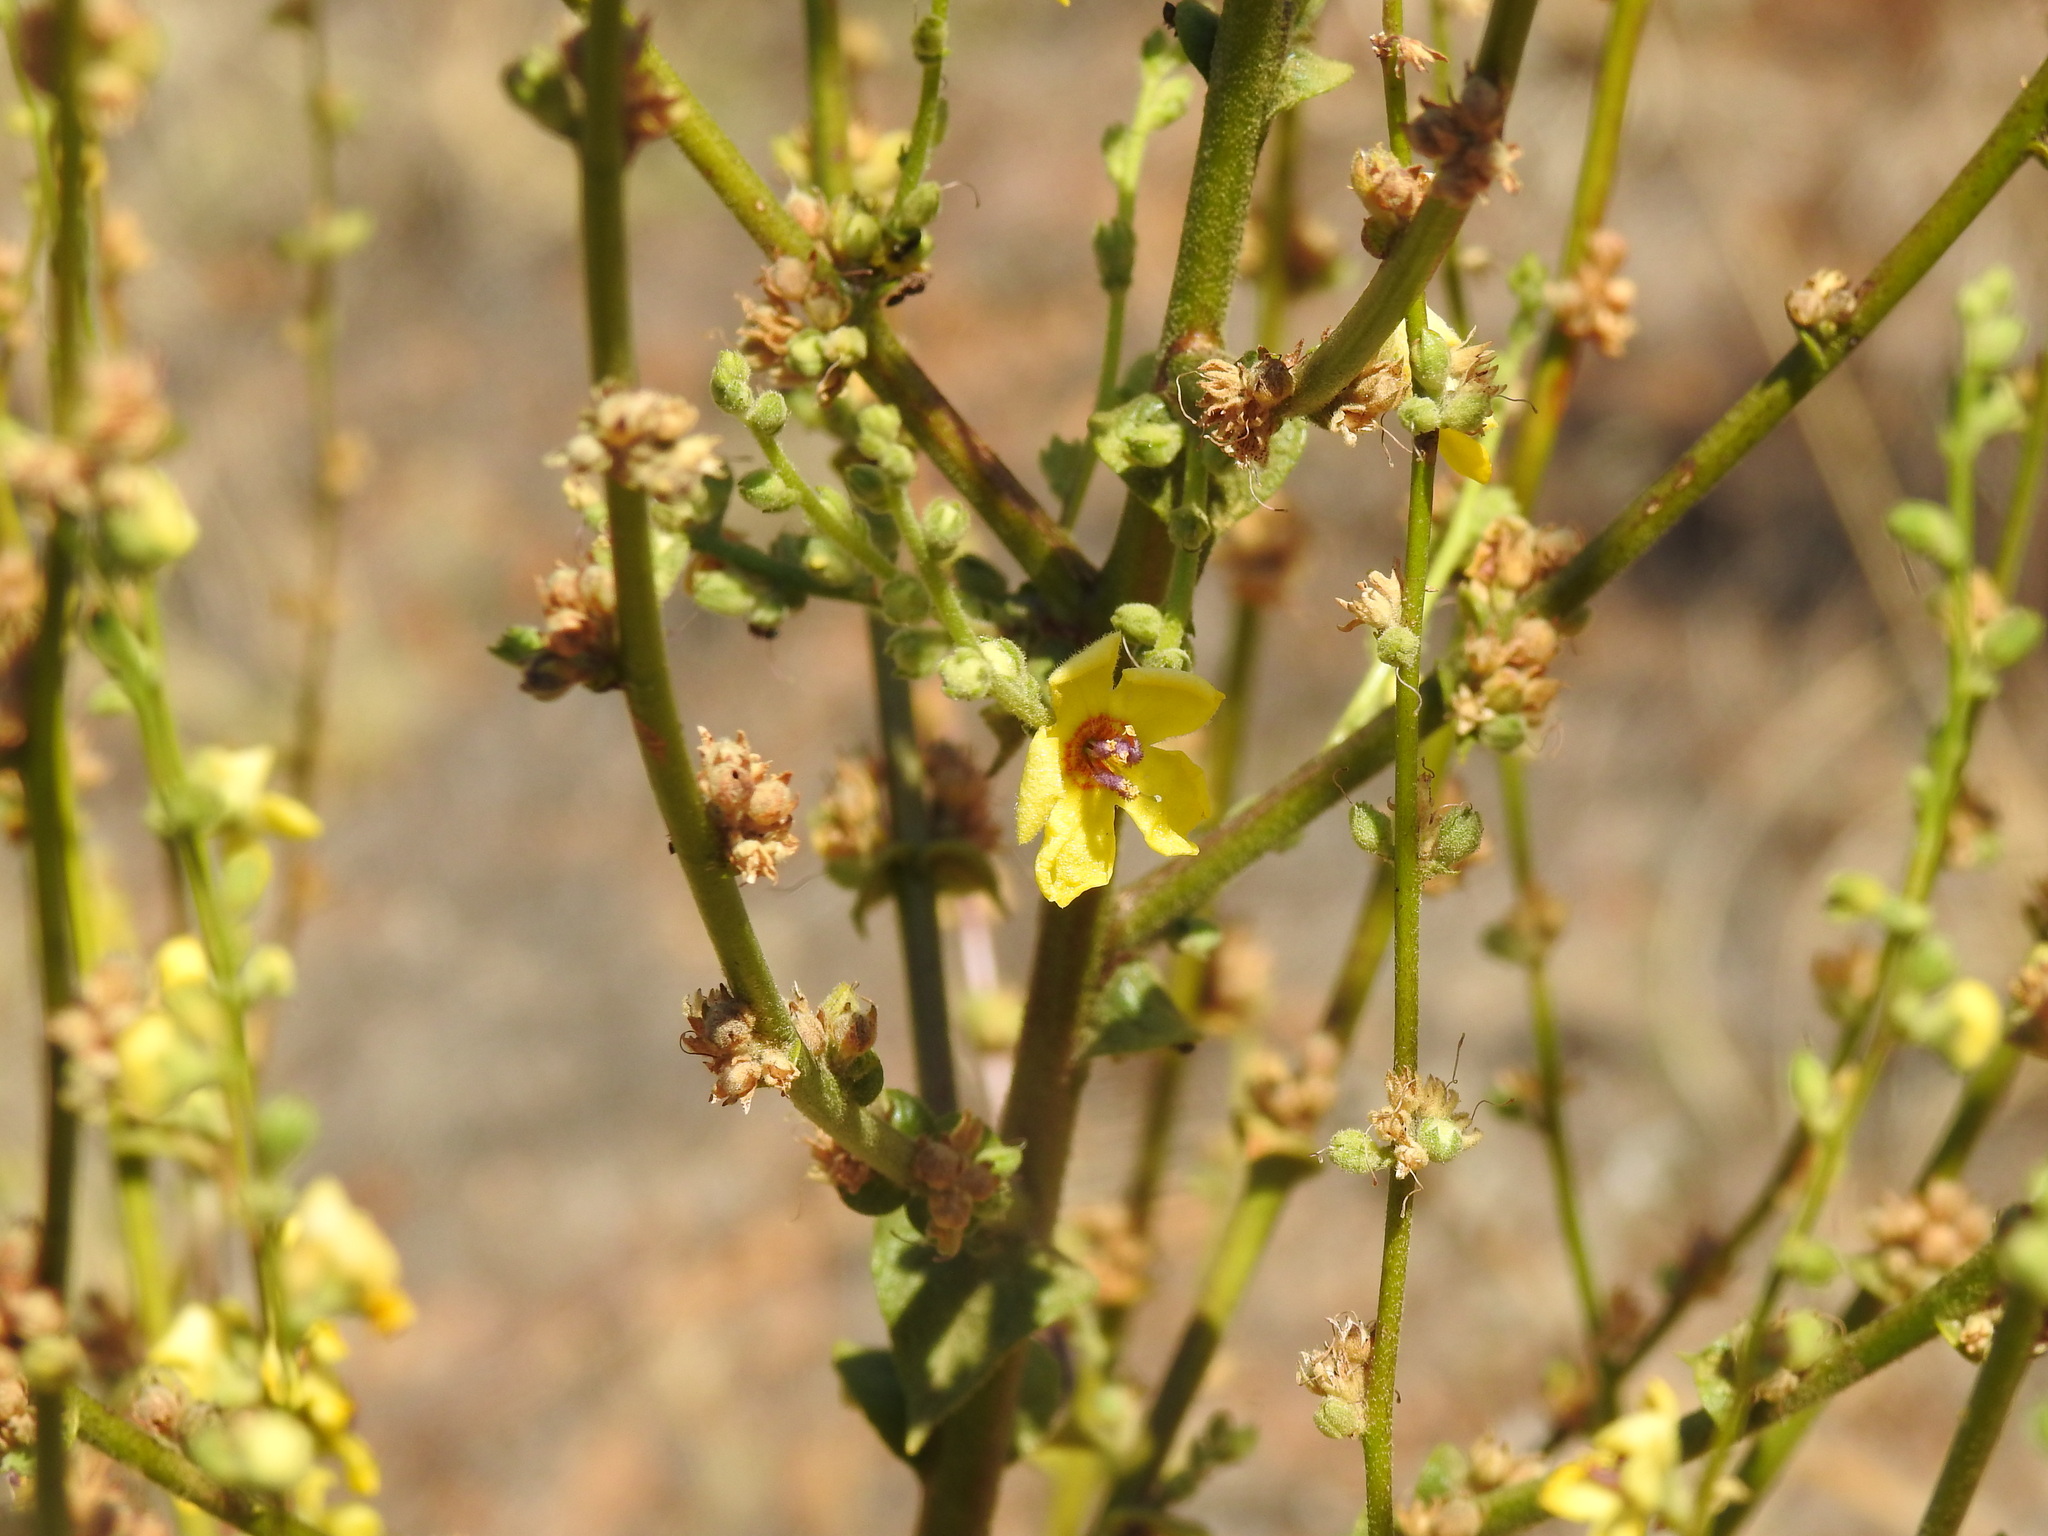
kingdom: Plantae
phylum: Tracheophyta
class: Magnoliopsida
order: Lamiales
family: Scrophulariaceae
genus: Verbascum
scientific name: Verbascum sinuatum
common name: Wavyleaf mullein
